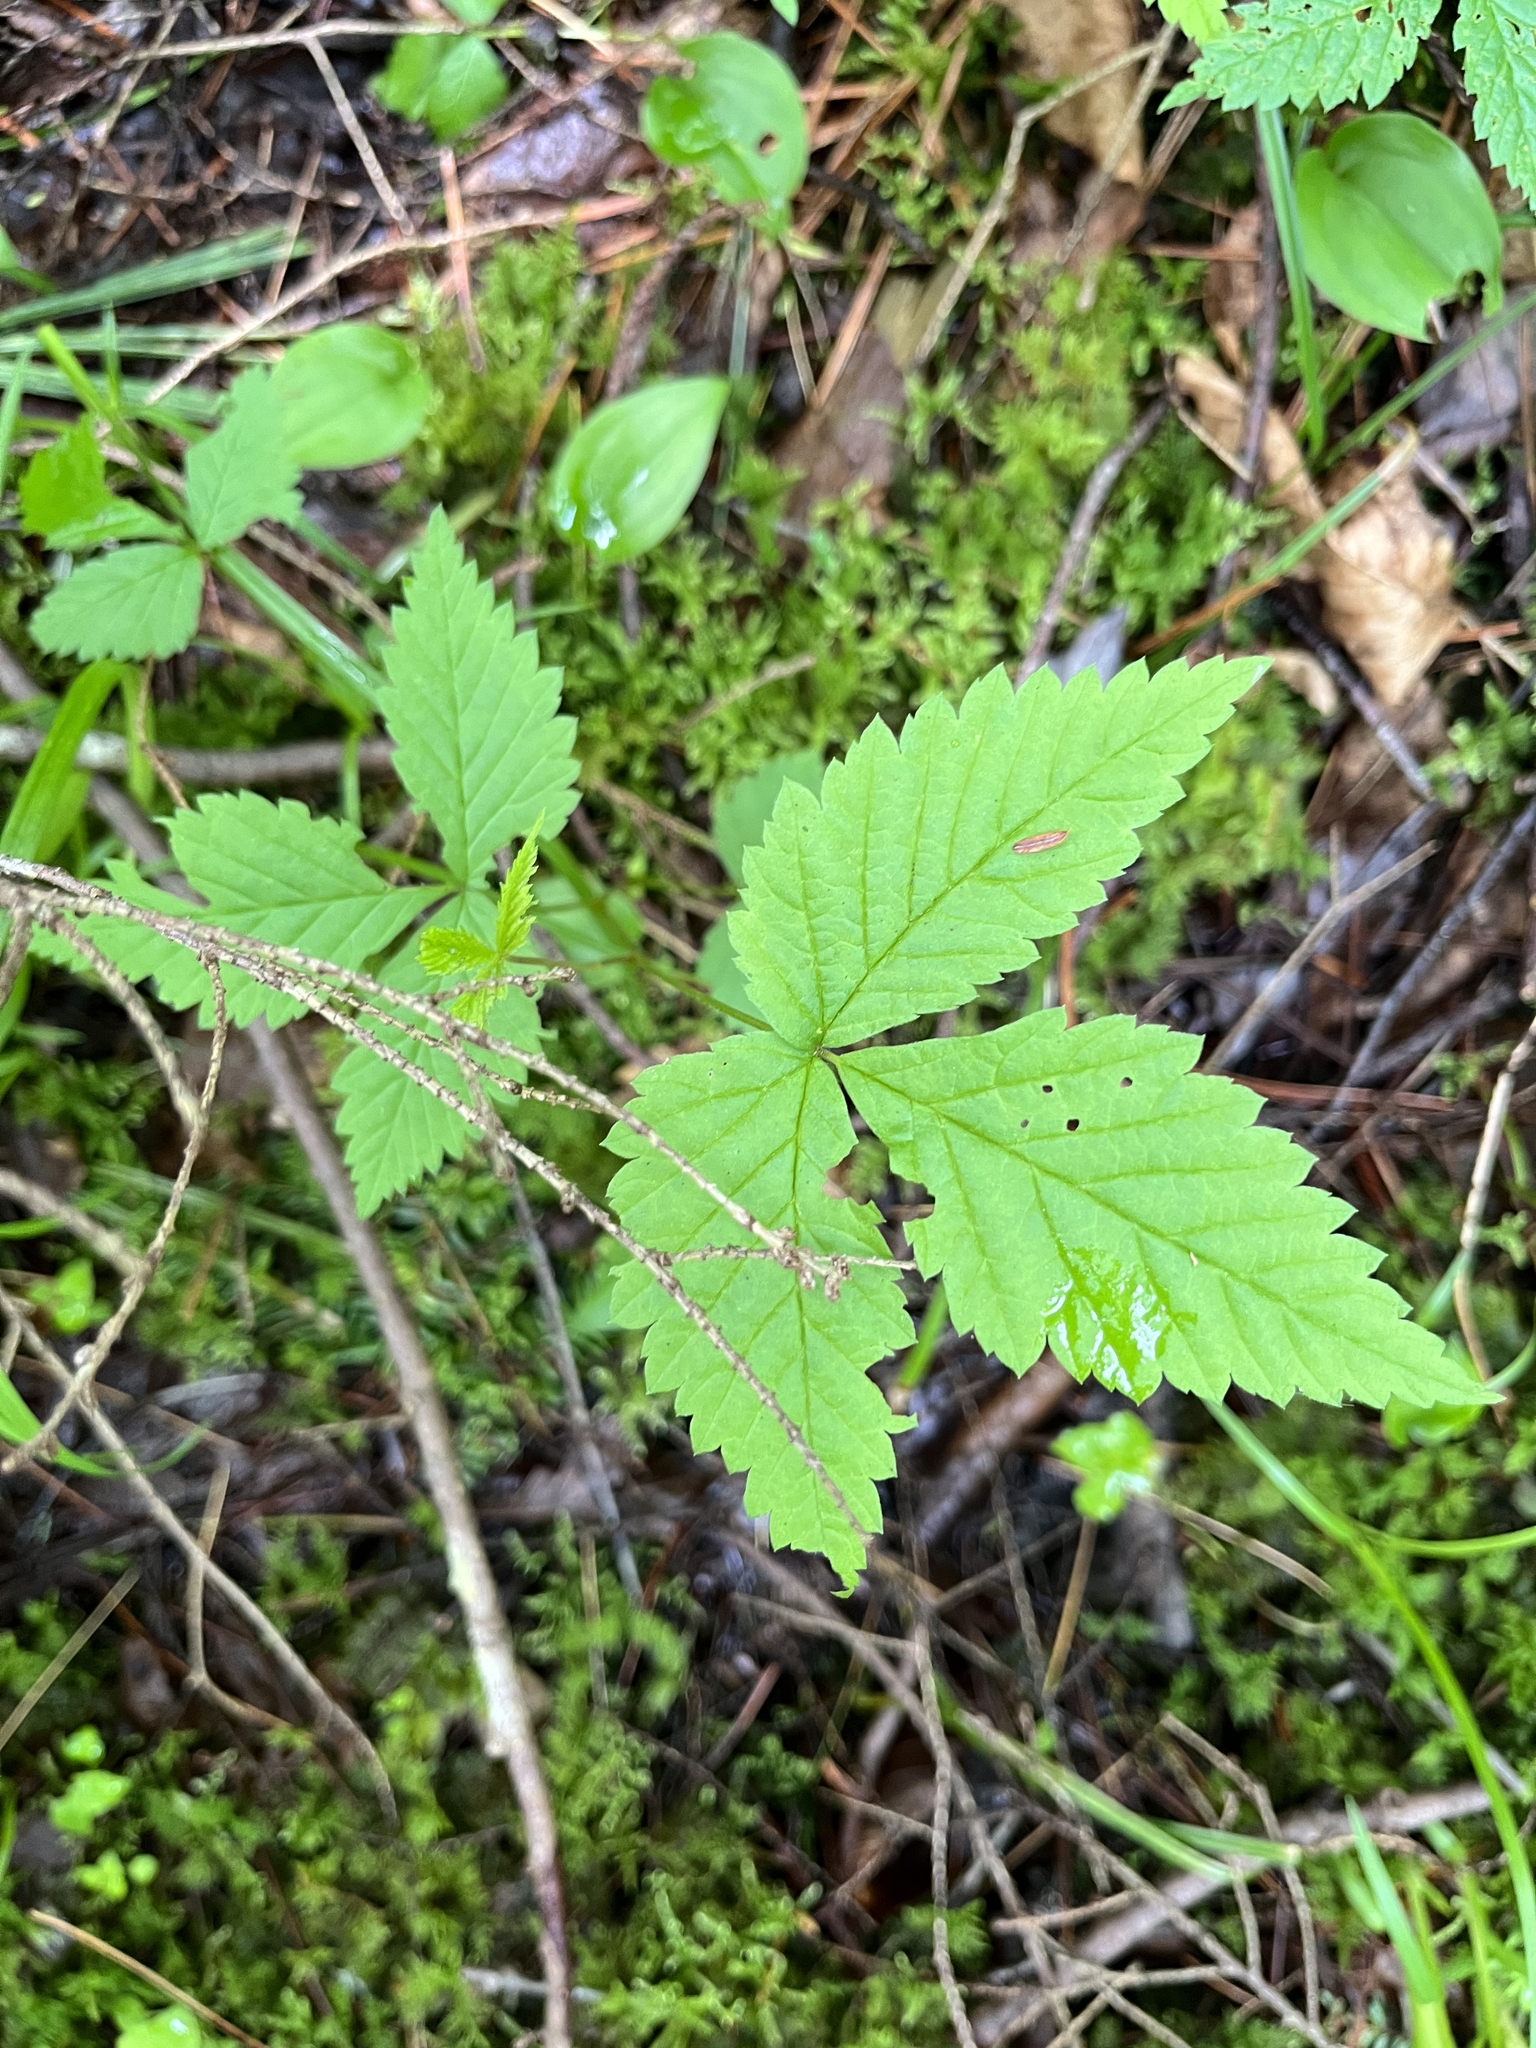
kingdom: Plantae
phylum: Tracheophyta
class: Magnoliopsida
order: Rosales
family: Rosaceae
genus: Rubus
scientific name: Rubus pubescens
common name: Dwarf raspberry
